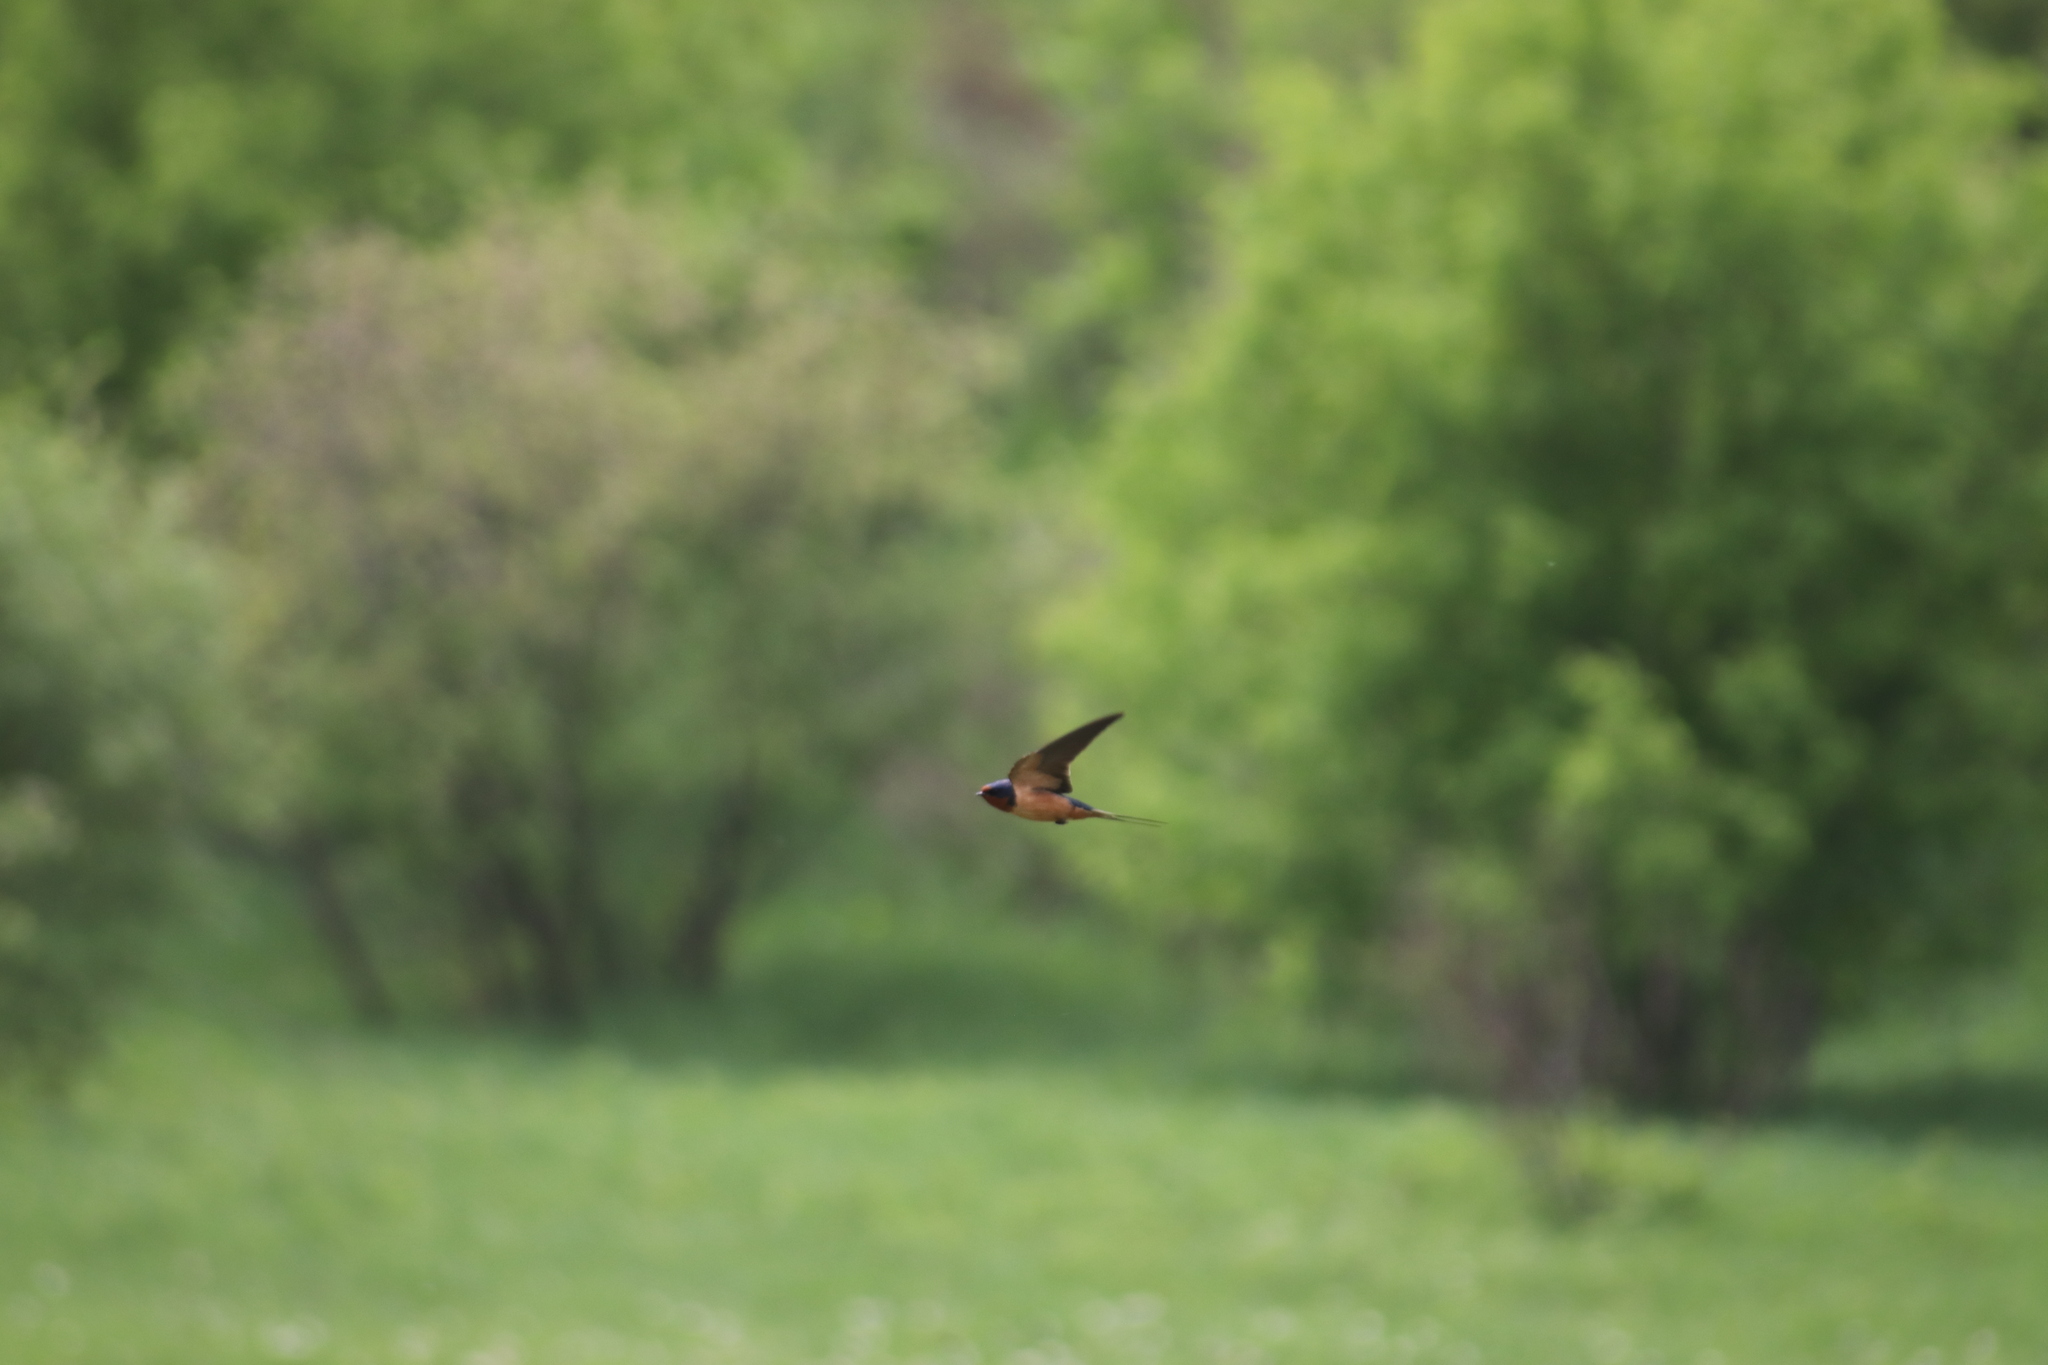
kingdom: Animalia
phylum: Chordata
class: Aves
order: Passeriformes
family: Hirundinidae
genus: Hirundo
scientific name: Hirundo rustica
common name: Barn swallow
